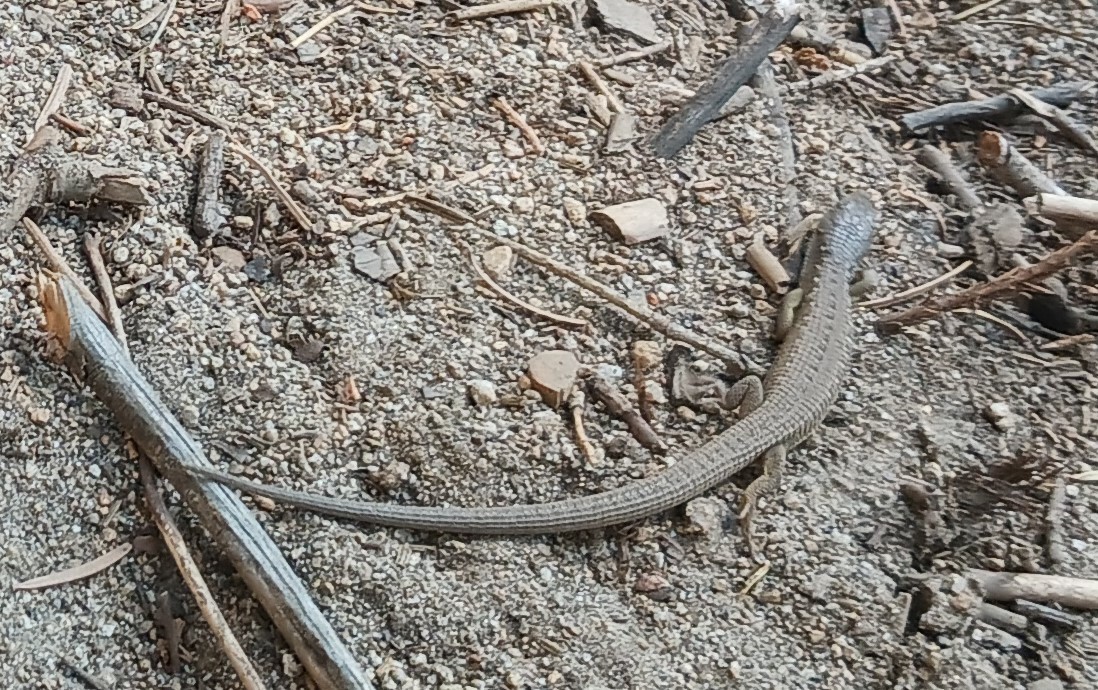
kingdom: Animalia
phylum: Chordata
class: Squamata
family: Anguidae
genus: Elgaria
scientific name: Elgaria coerulea
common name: Northern alligator lizard
